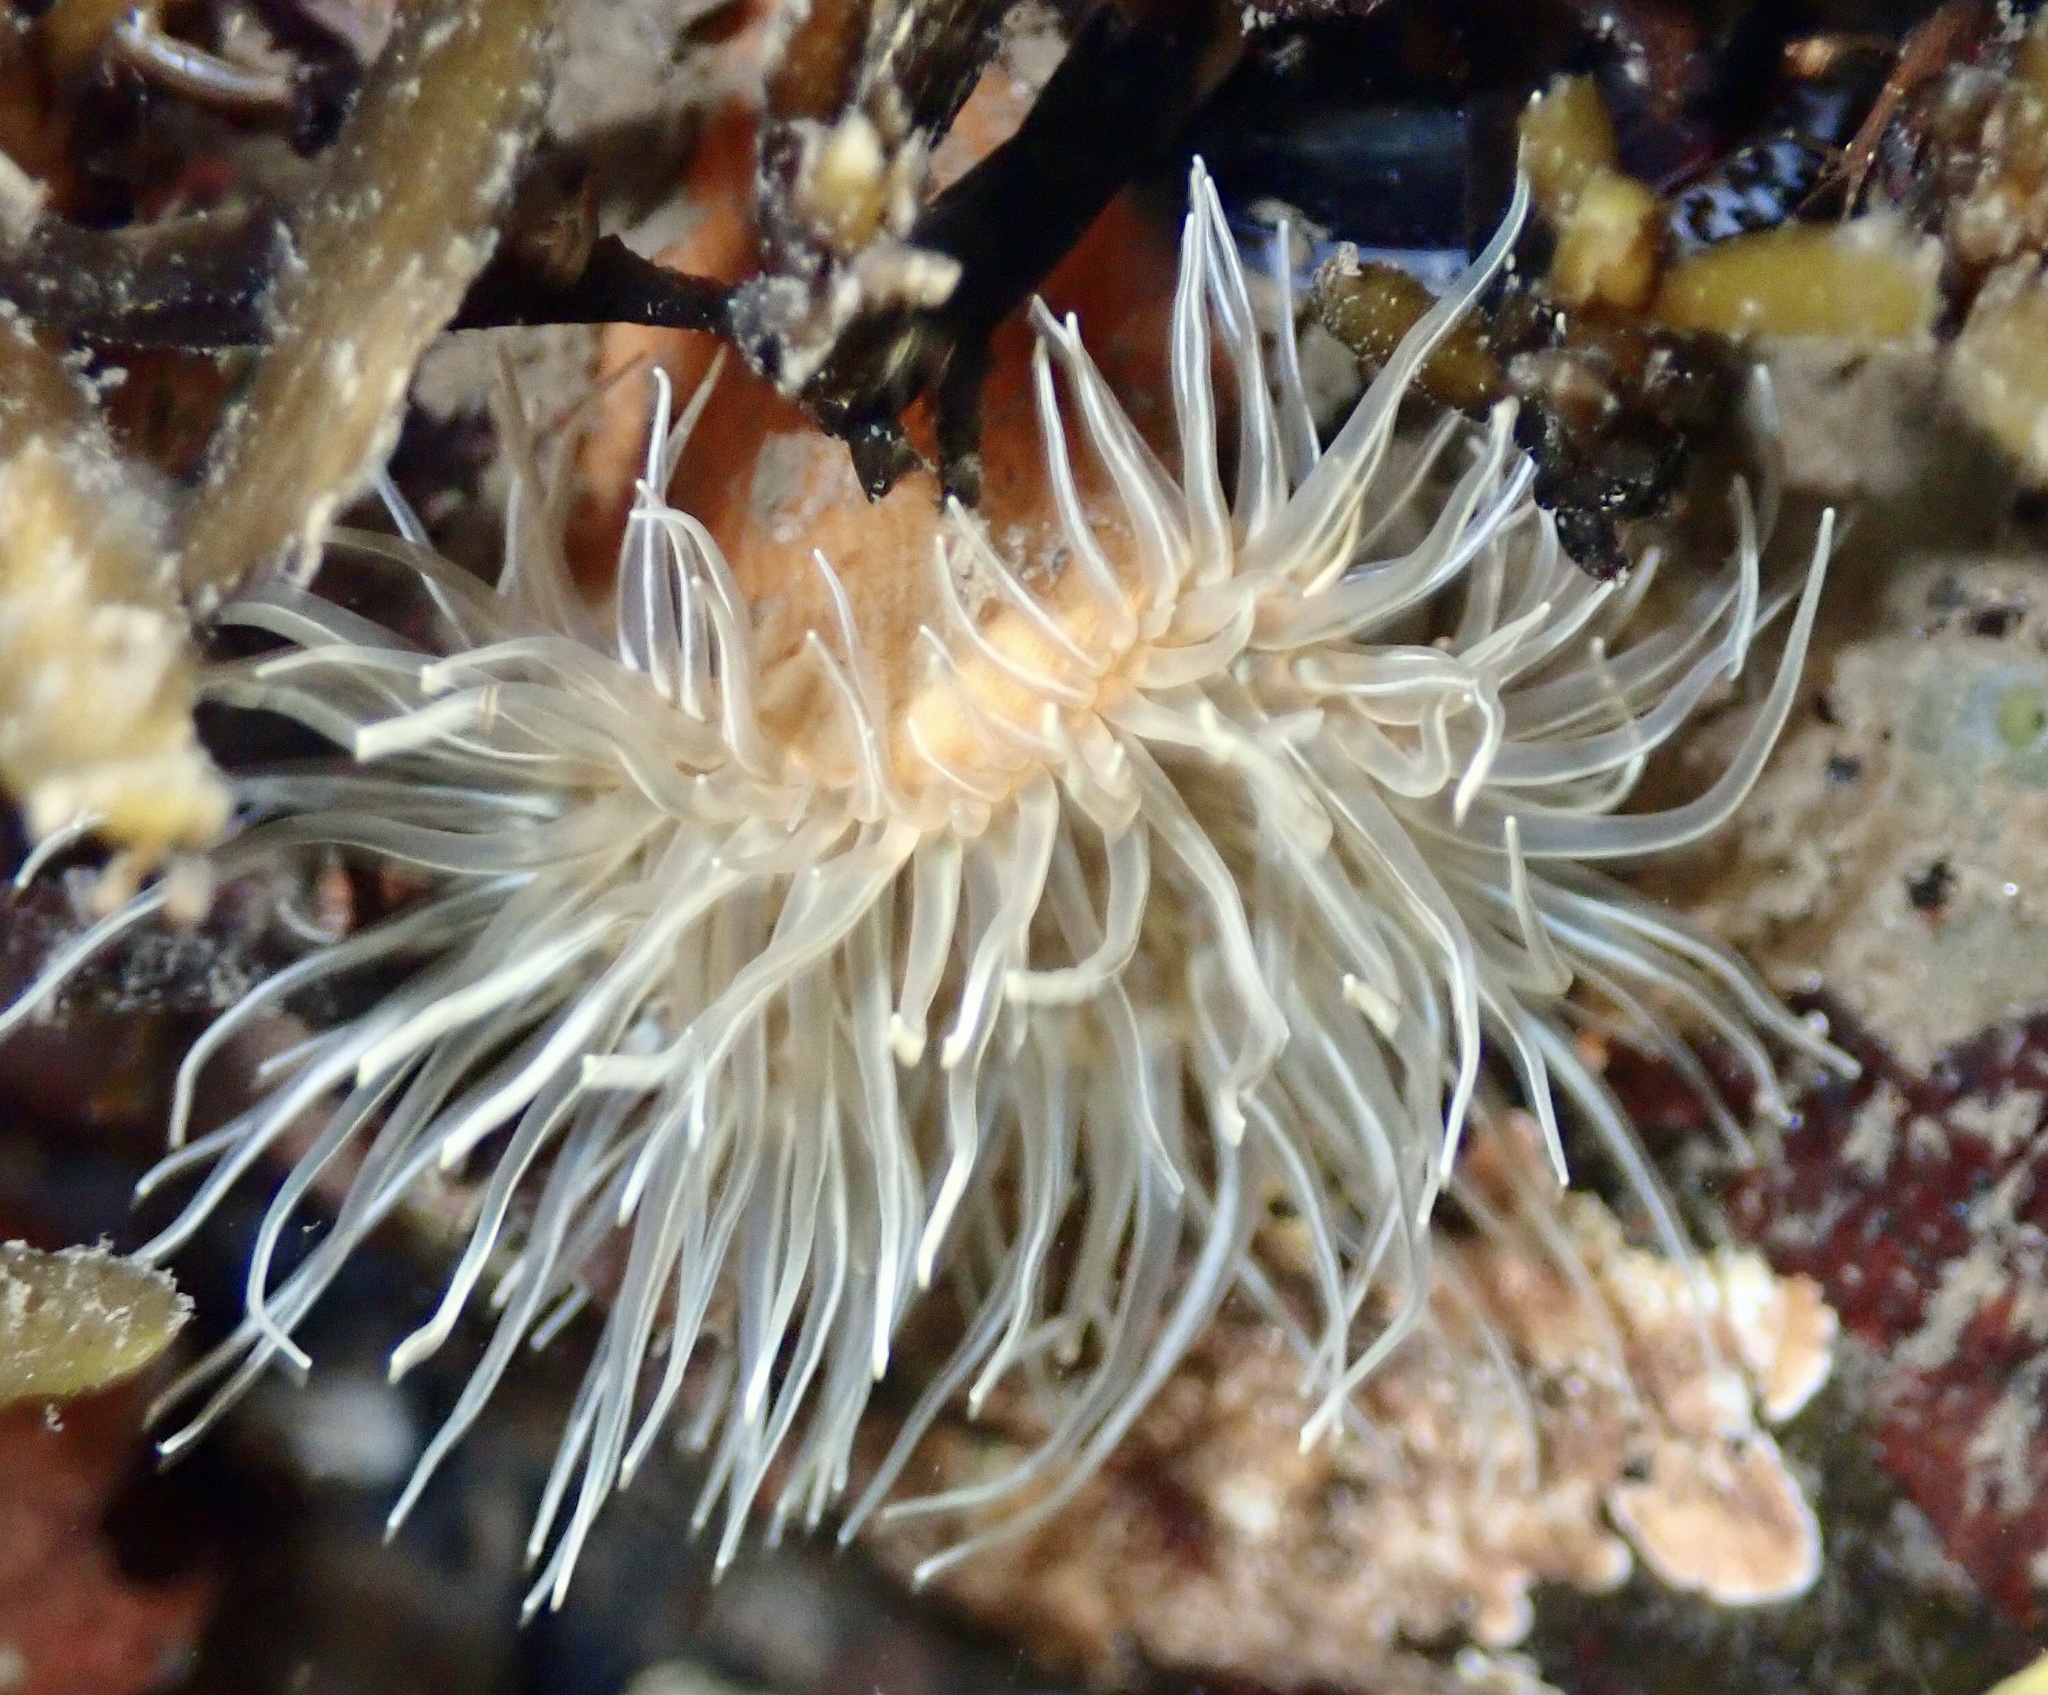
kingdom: Animalia
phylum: Cnidaria
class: Anthozoa
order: Actiniaria
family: Sagartiidae
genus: Sagartia
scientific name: Sagartia undata
